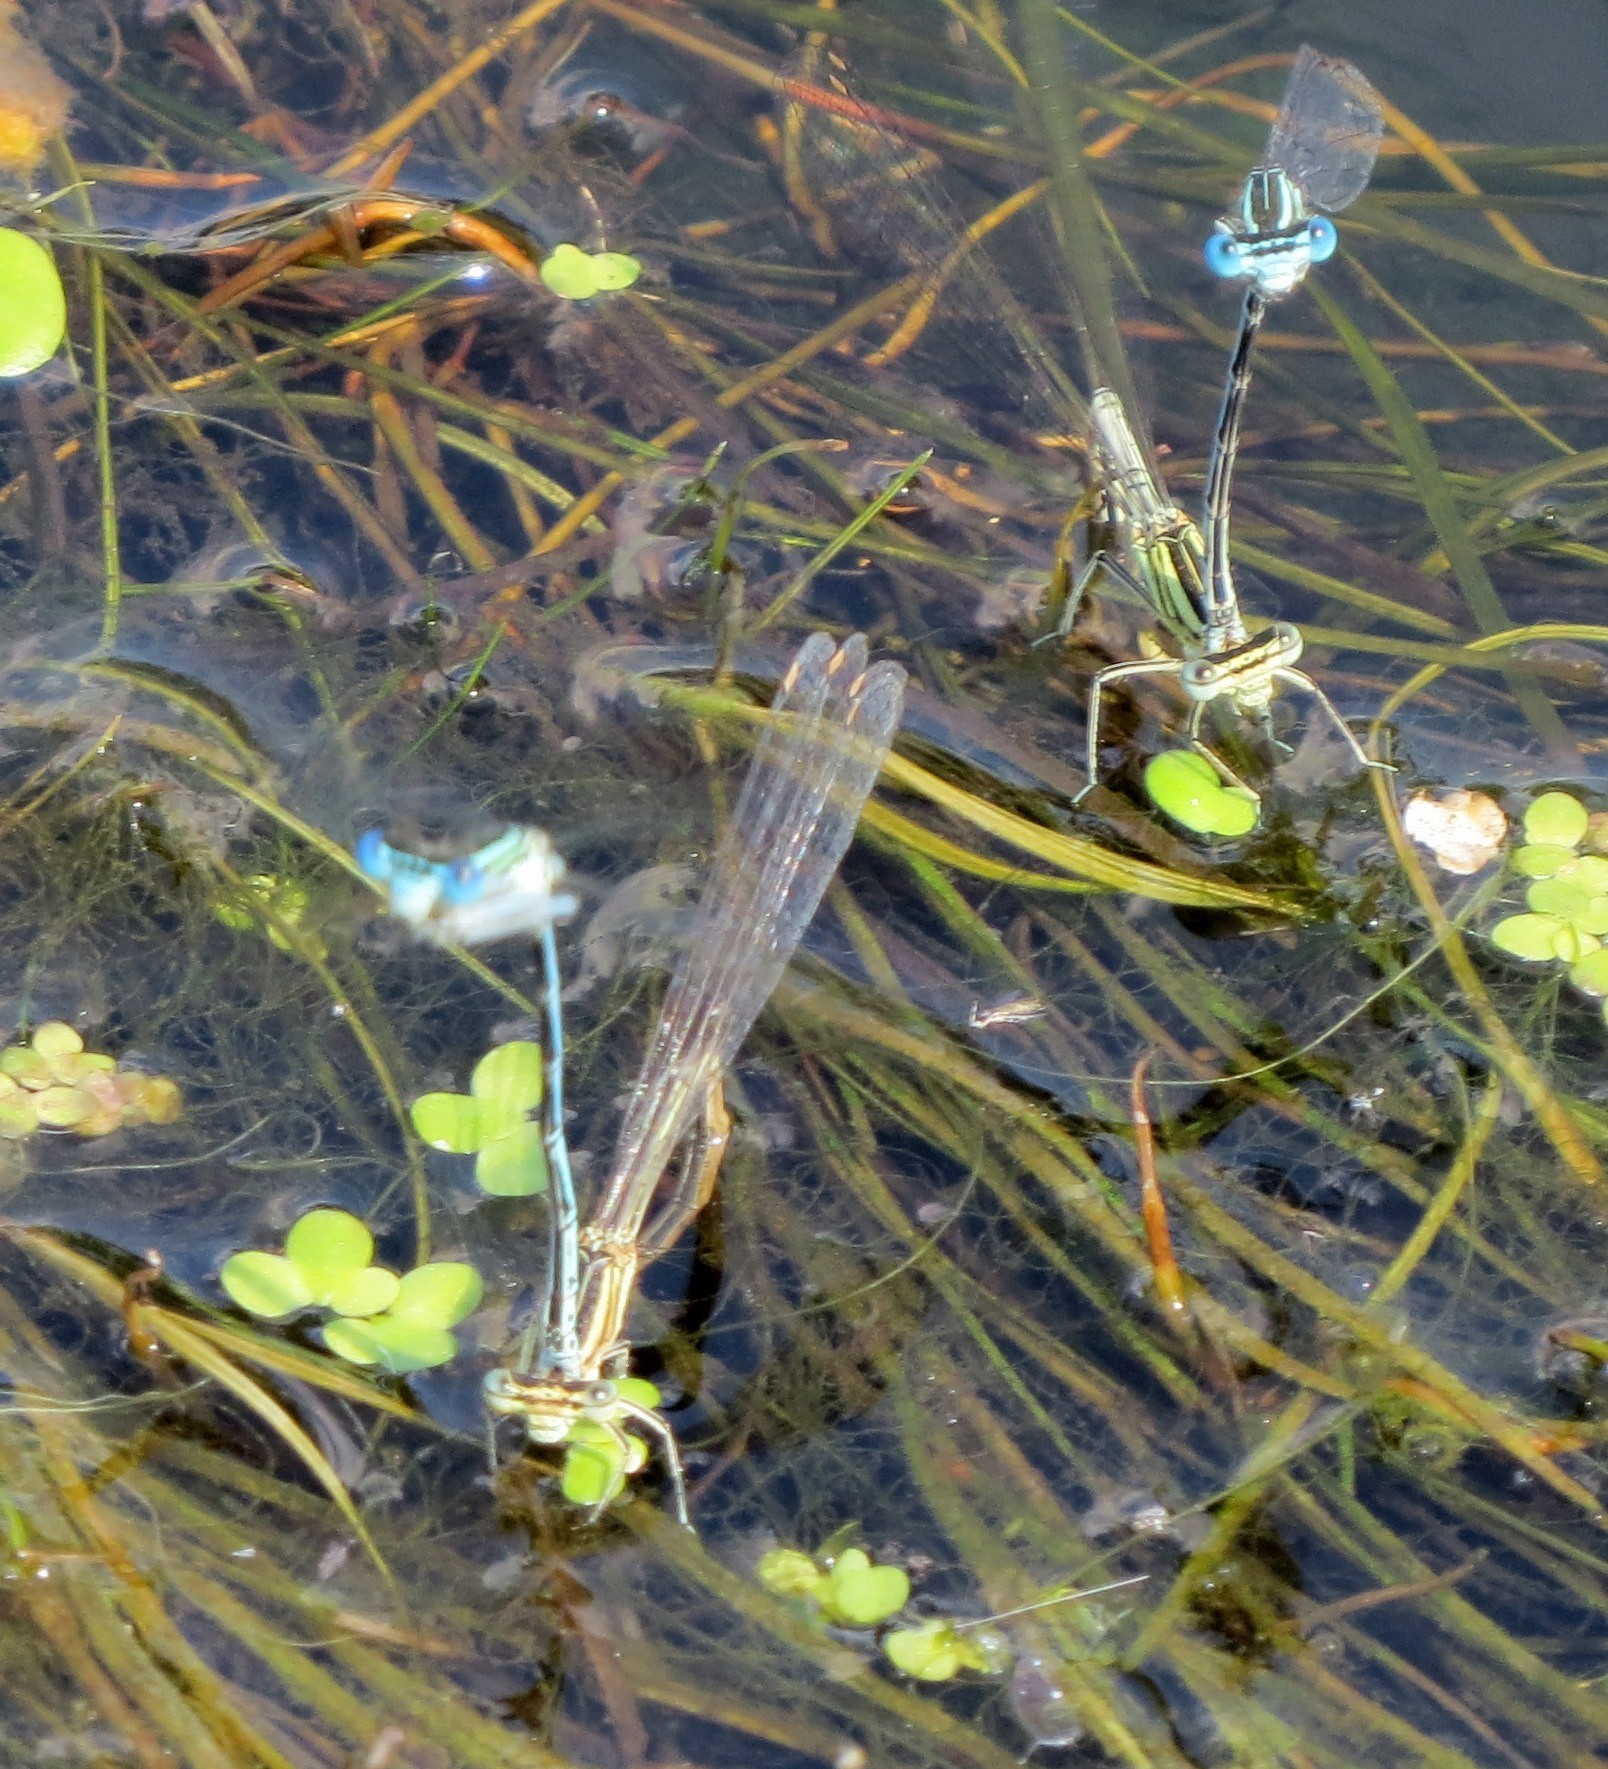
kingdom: Animalia
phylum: Arthropoda
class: Insecta
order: Odonata
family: Platycnemididae
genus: Platycnemis
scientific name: Platycnemis pennipes
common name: White-legged damselfly
